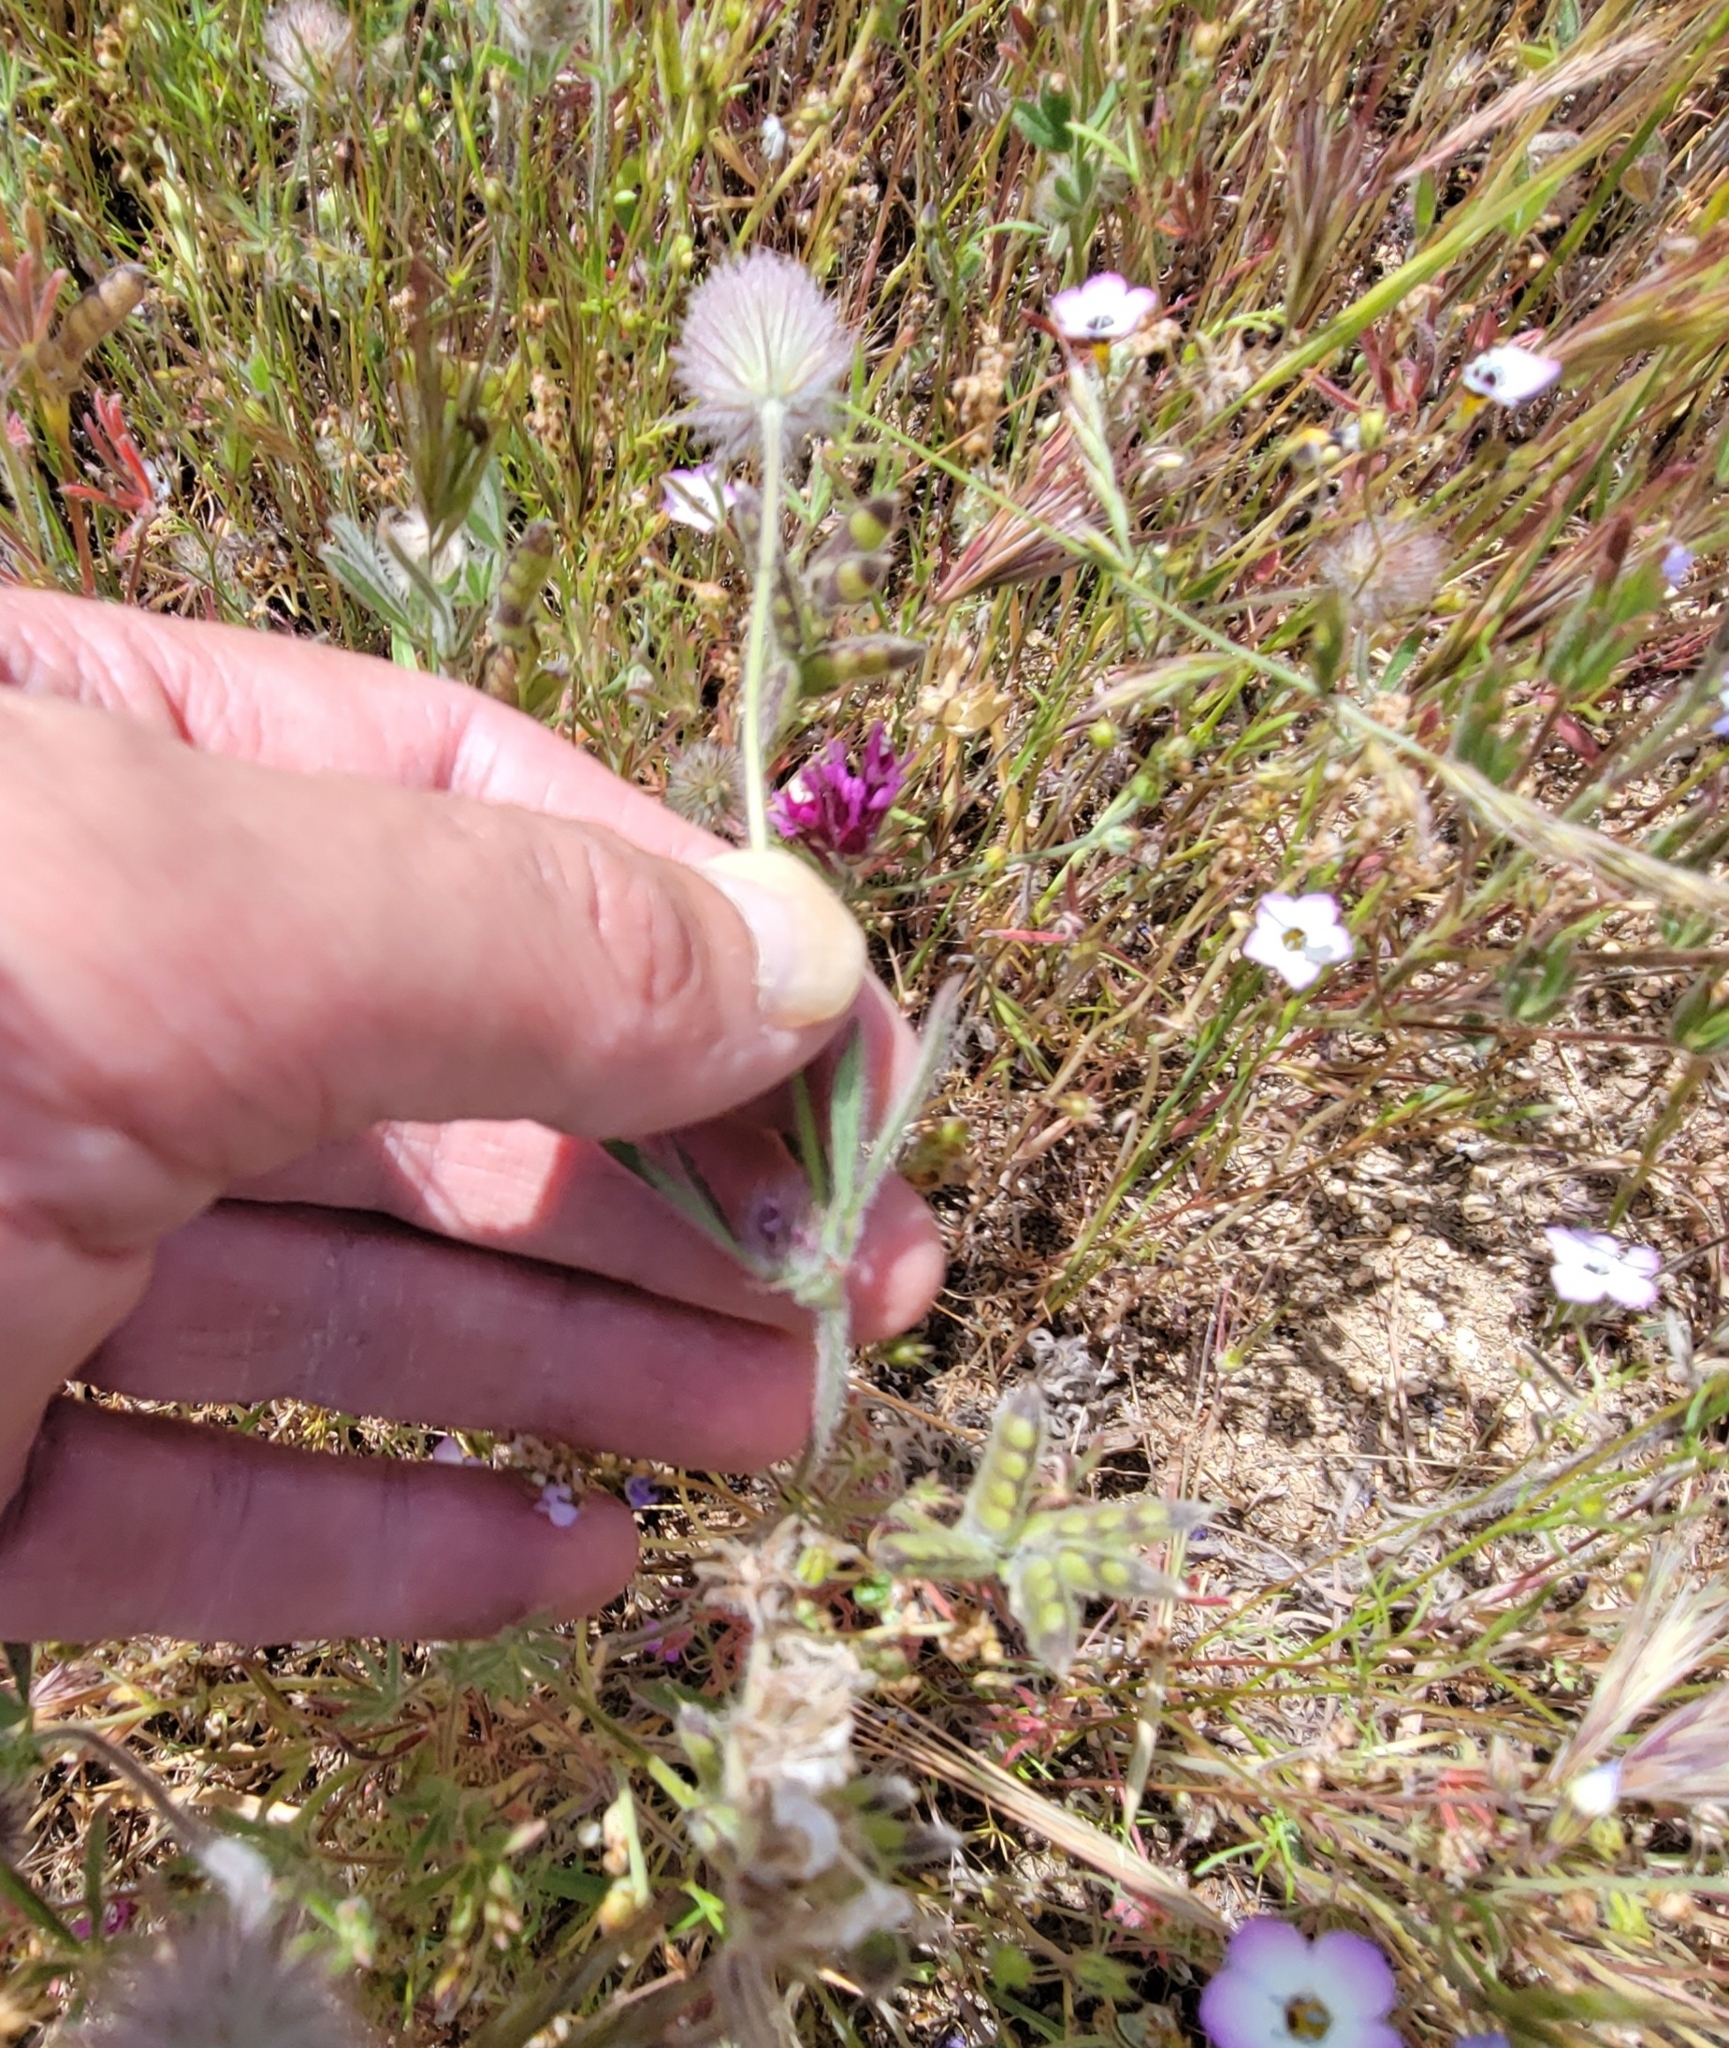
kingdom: Plantae
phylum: Tracheophyta
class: Magnoliopsida
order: Fabales
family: Fabaceae
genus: Trifolium
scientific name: Trifolium albopurpureum
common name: Rancheria clover
